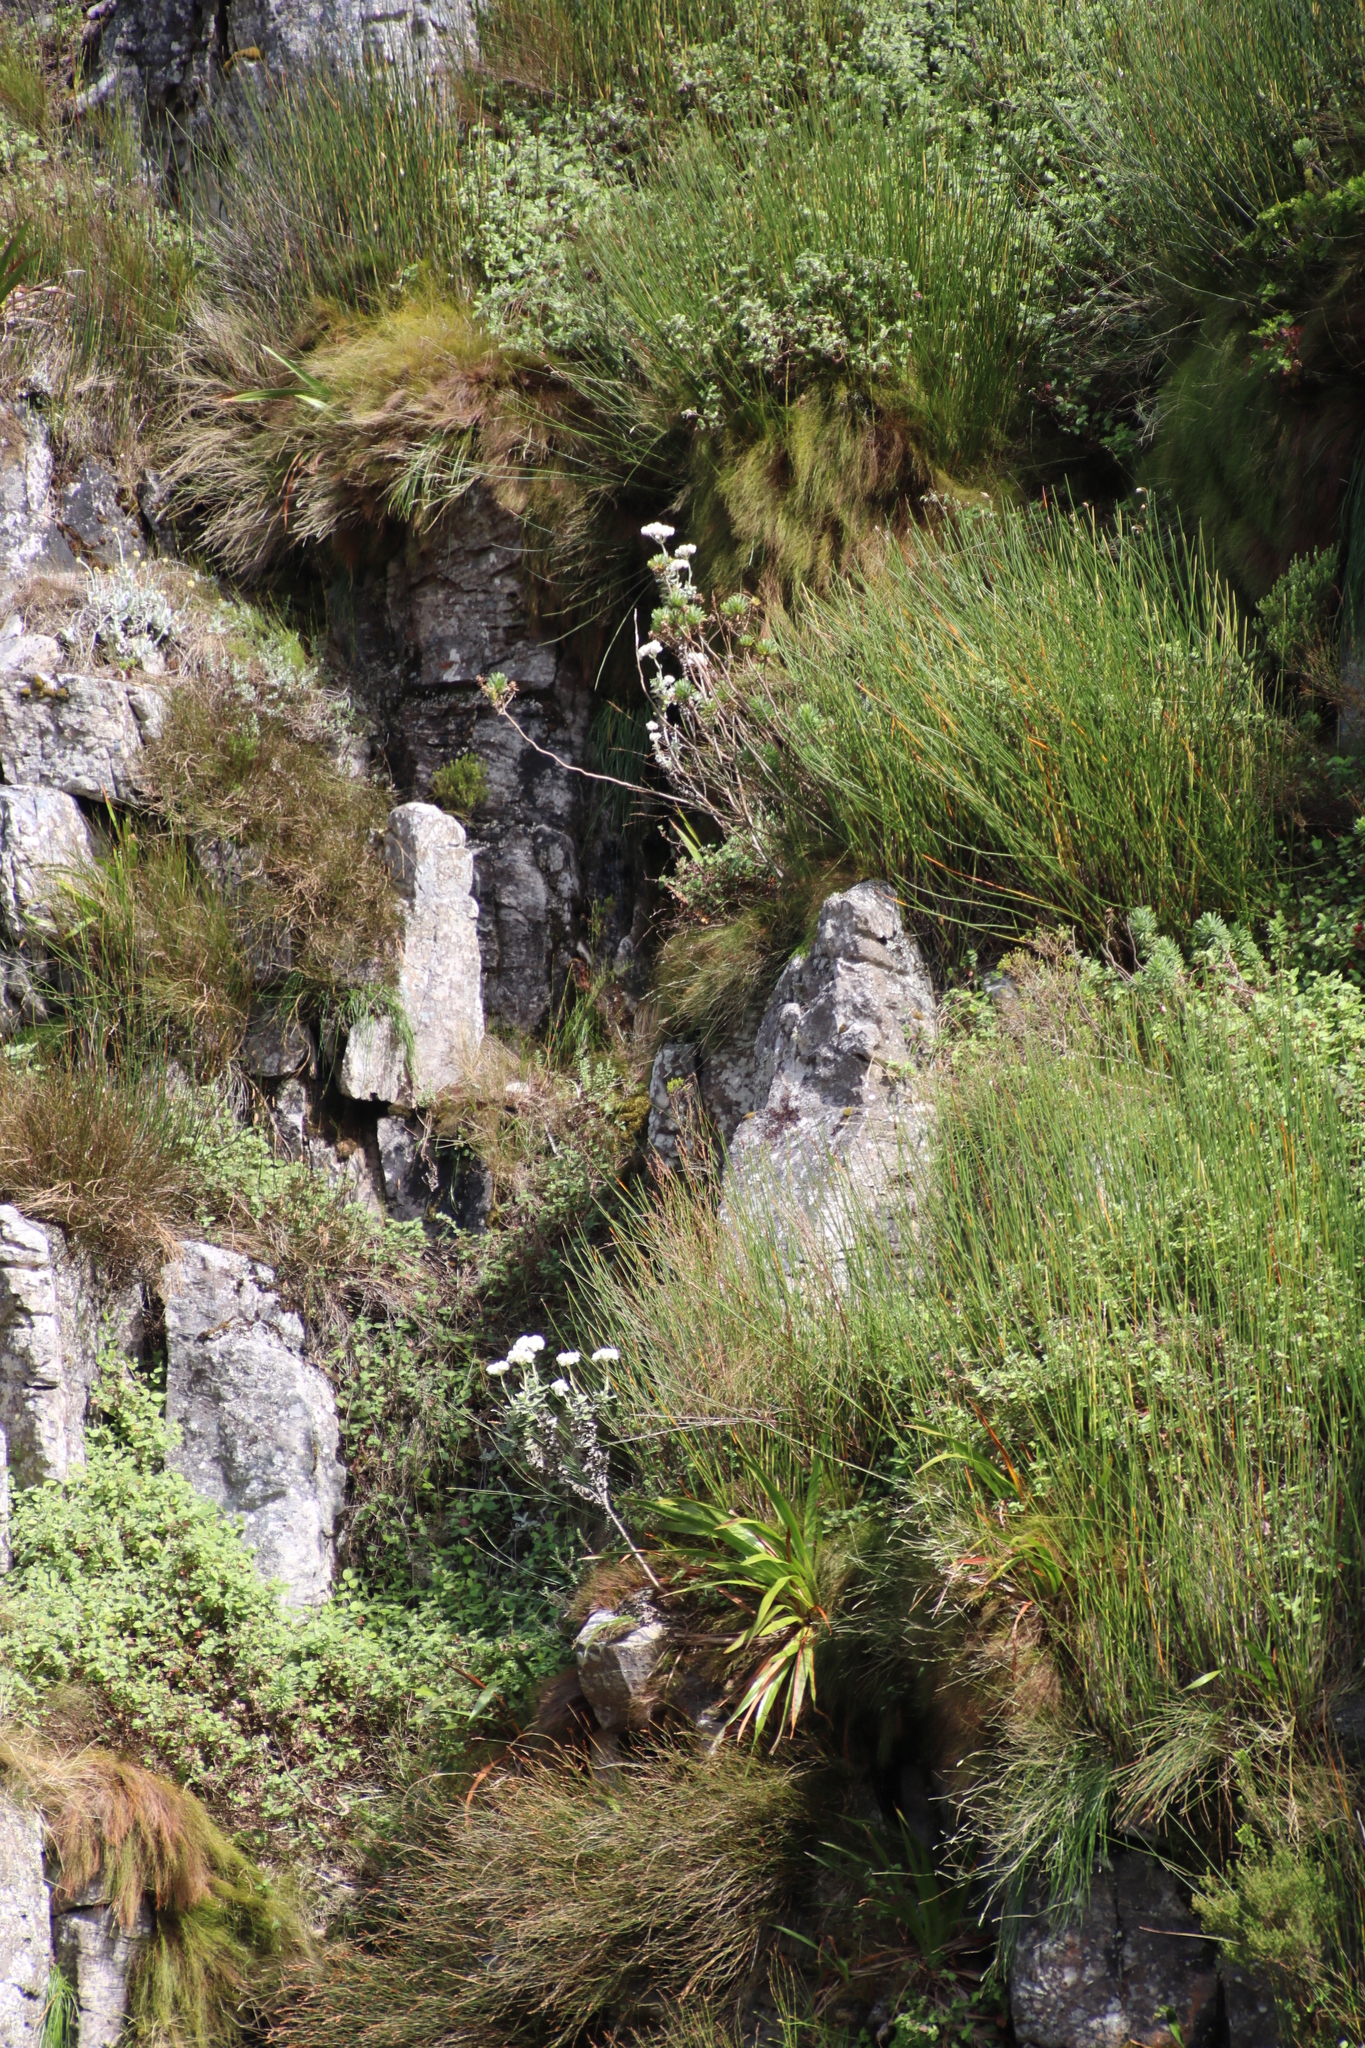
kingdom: Plantae
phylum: Tracheophyta
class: Magnoliopsida
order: Asterales
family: Asteraceae
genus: Helichrysum
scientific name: Helichrysum fruticans
